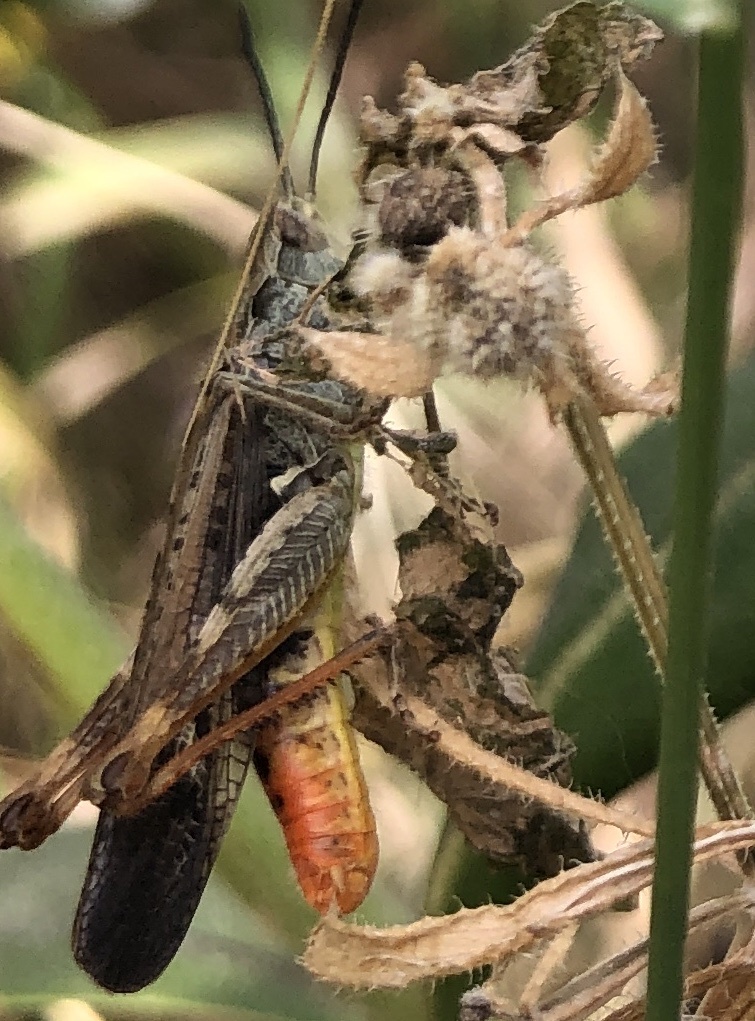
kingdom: Animalia
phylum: Arthropoda
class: Insecta
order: Orthoptera
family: Acrididae
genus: Chorthippus
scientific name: Chorthippus jacobsi
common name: Iberian field grasshopper
